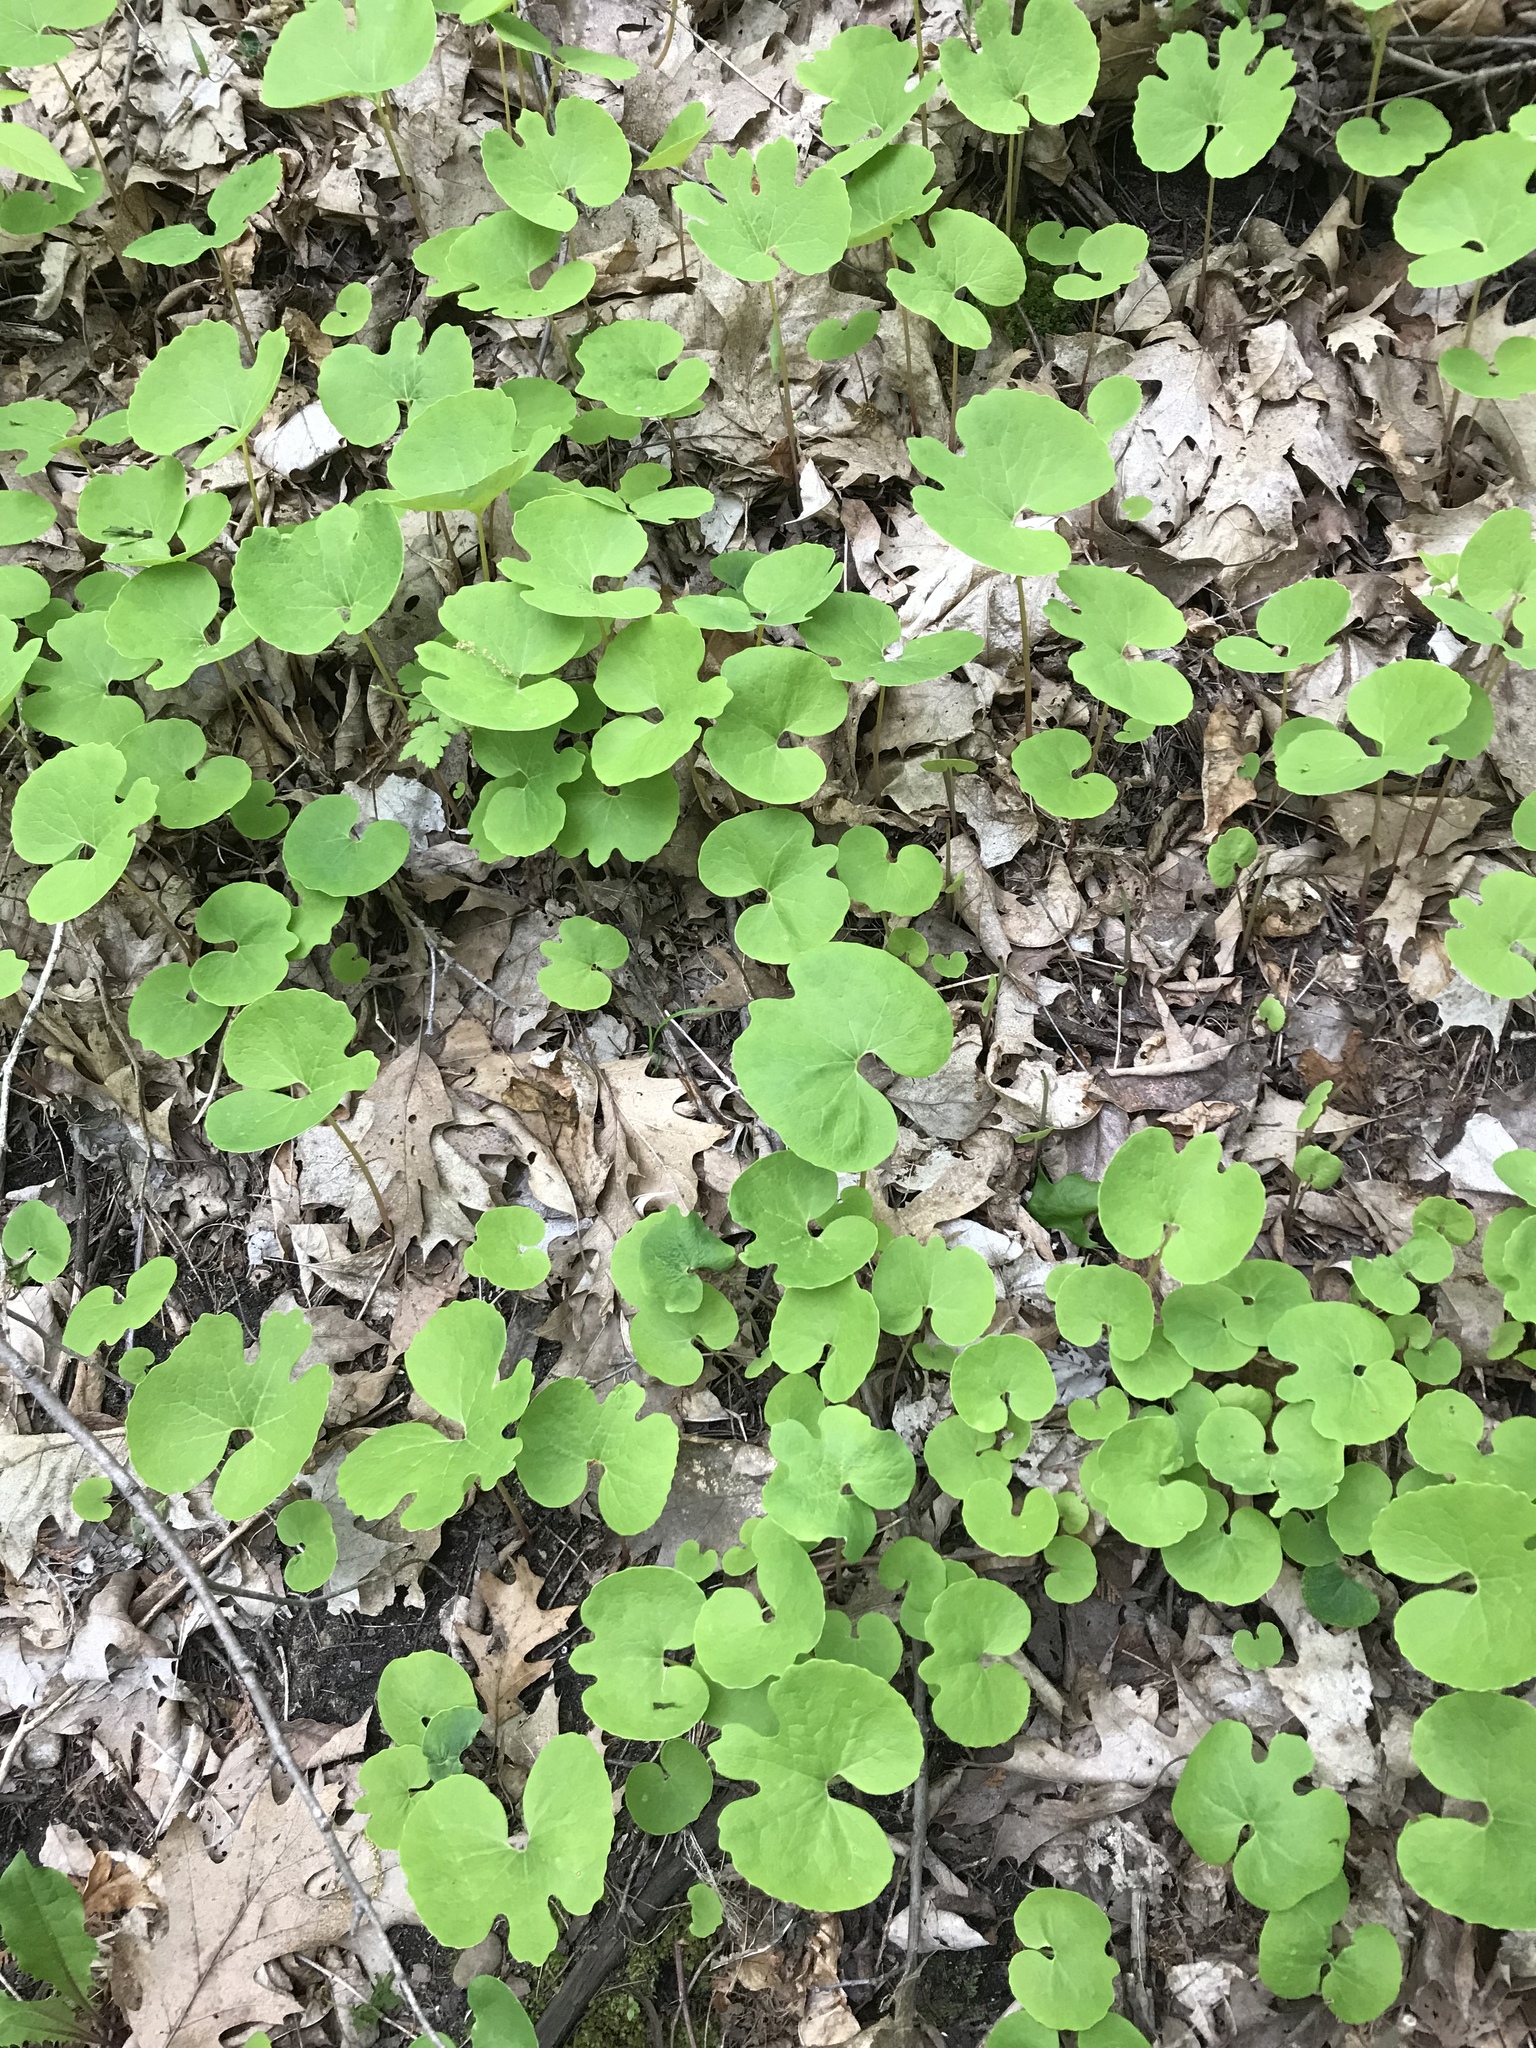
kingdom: Plantae
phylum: Tracheophyta
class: Magnoliopsida
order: Ranunculales
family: Papaveraceae
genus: Sanguinaria
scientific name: Sanguinaria canadensis
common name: Bloodroot
